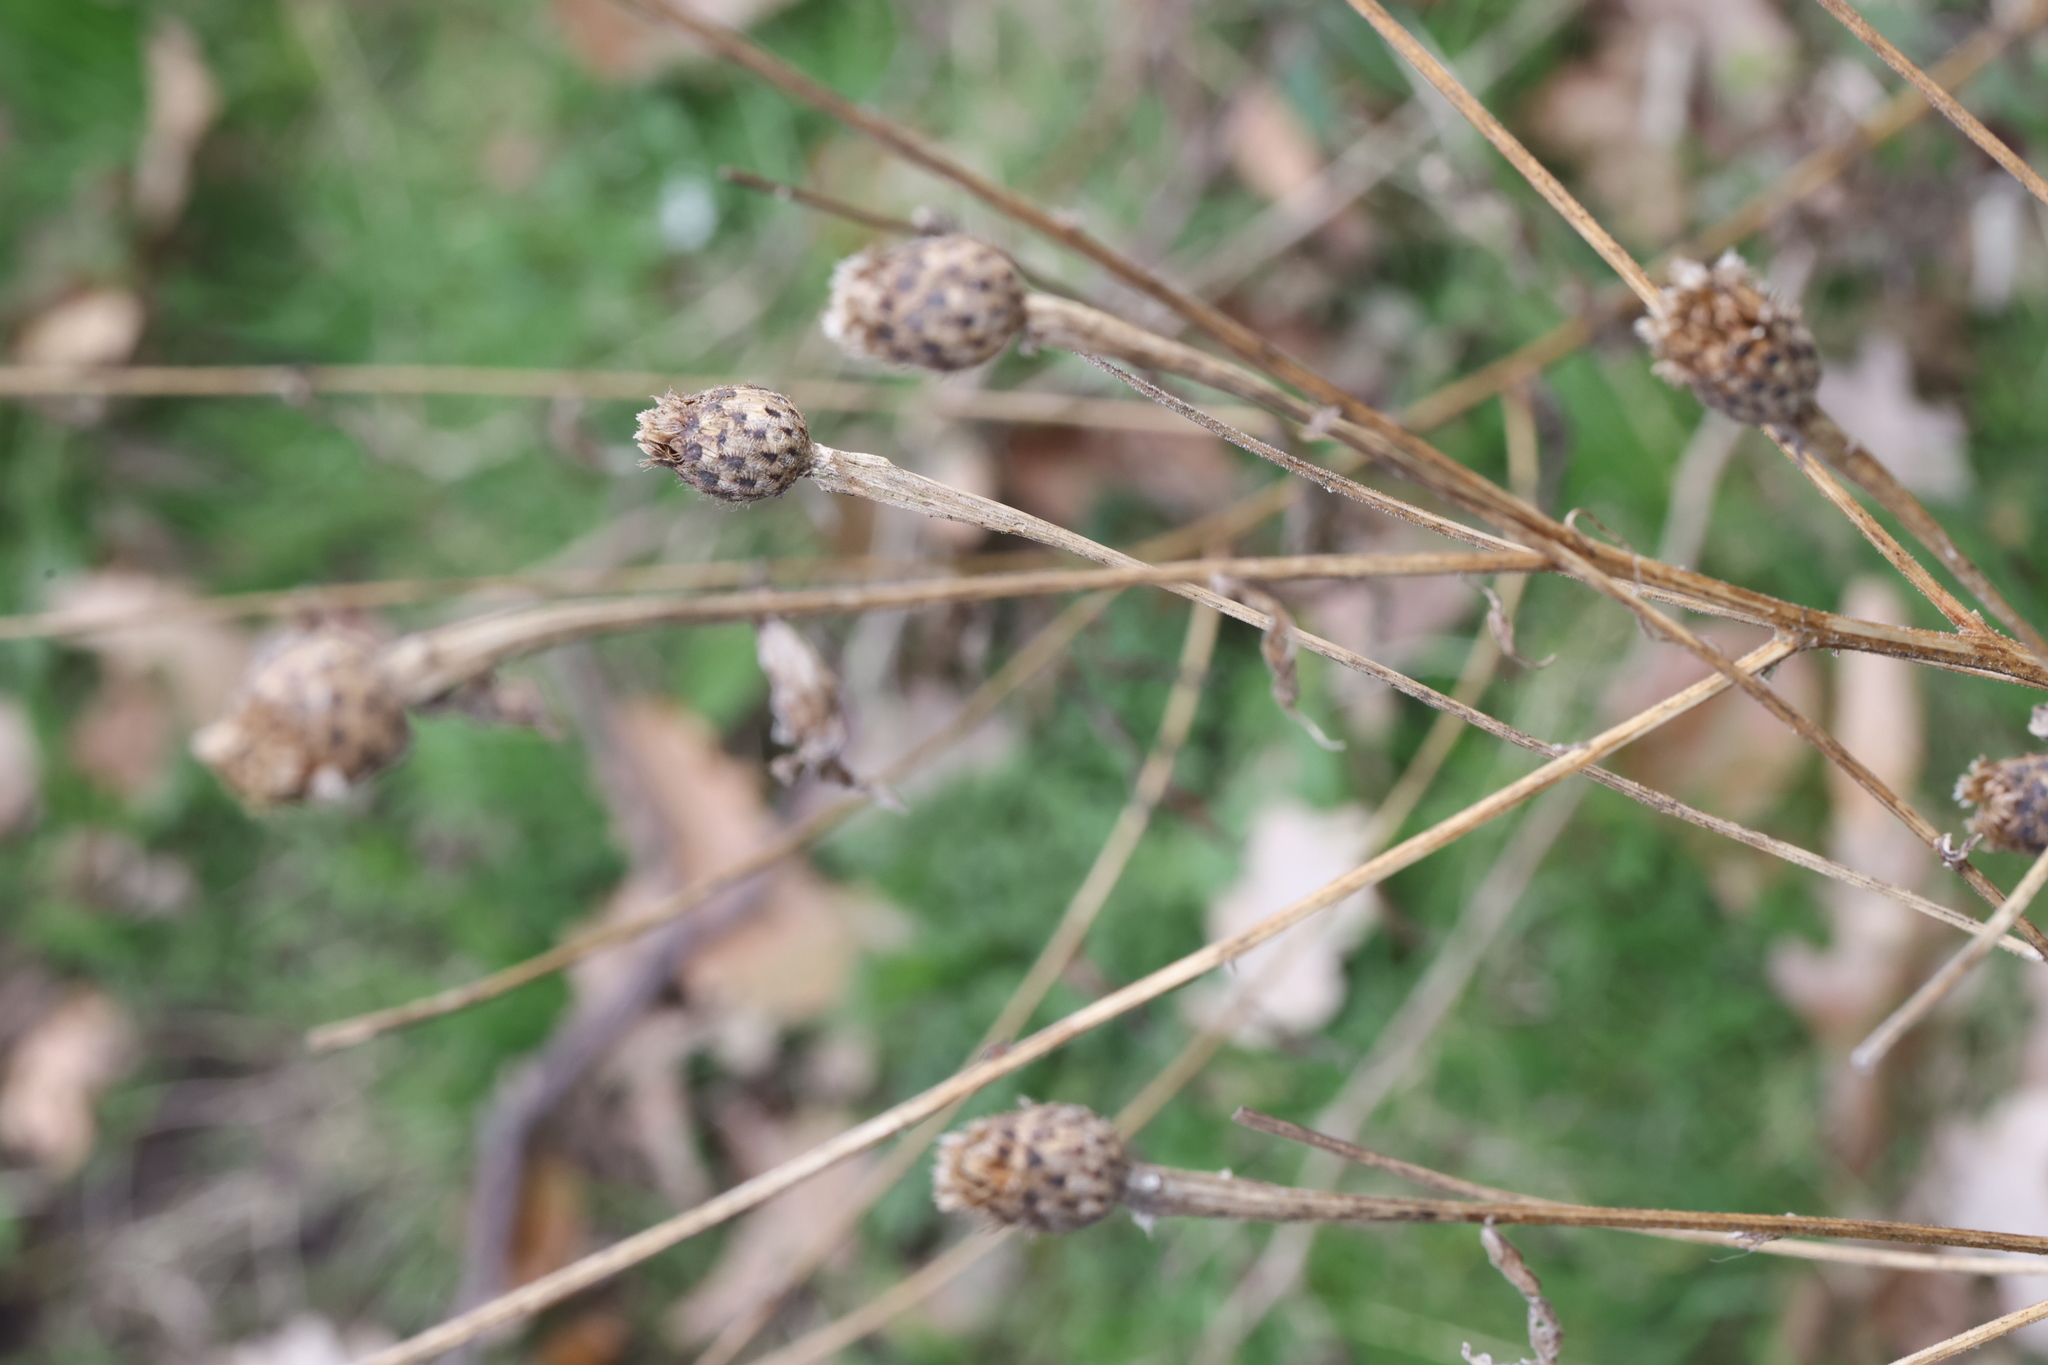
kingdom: Plantae
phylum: Tracheophyta
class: Magnoliopsida
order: Asterales
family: Asteraceae
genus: Centaurea
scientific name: Centaurea nigra
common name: Lesser knapweed
